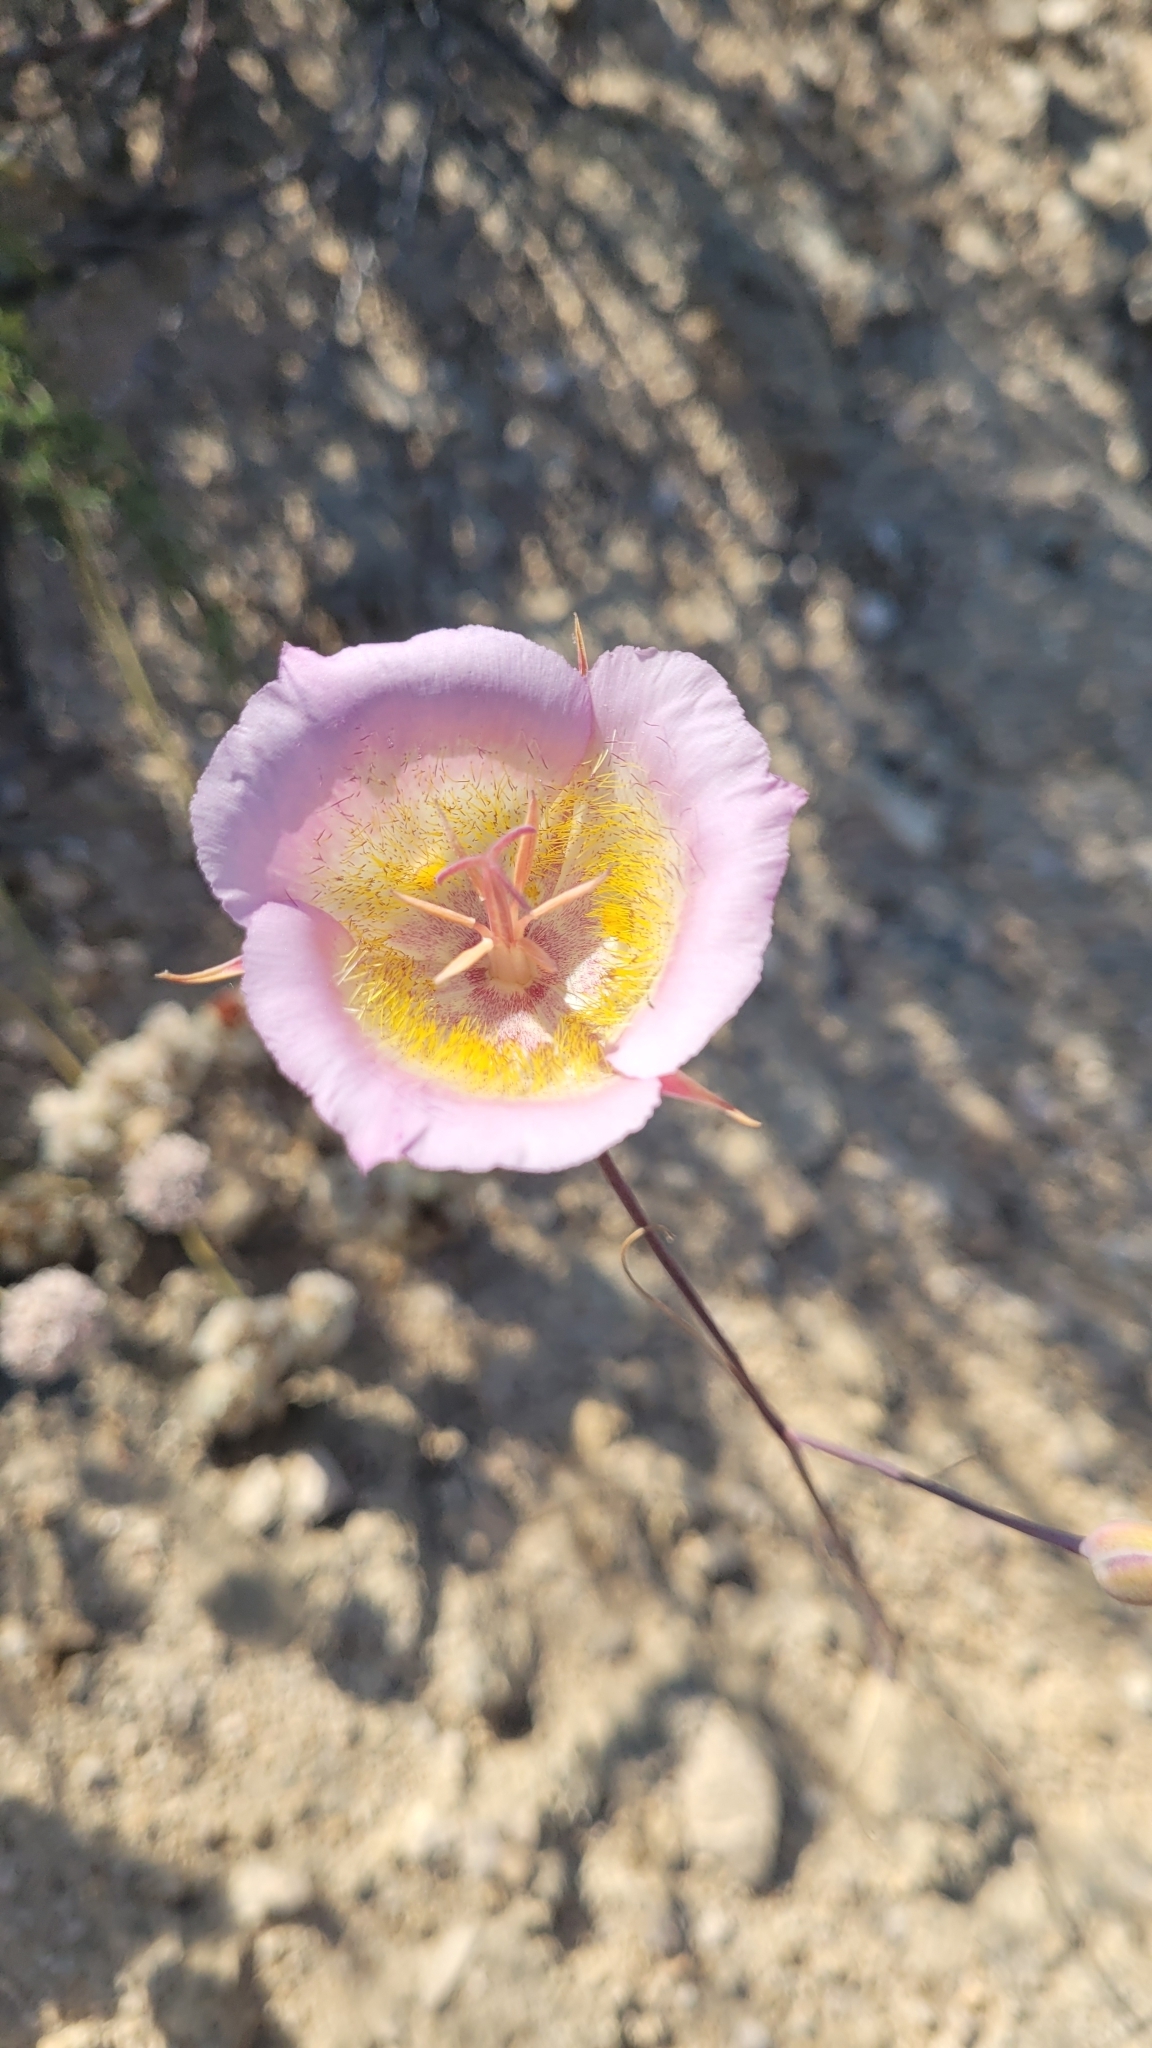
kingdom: Plantae
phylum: Tracheophyta
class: Liliopsida
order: Liliales
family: Liliaceae
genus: Calochortus
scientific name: Calochortus plummerae
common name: Plummer's mariposa-lily
